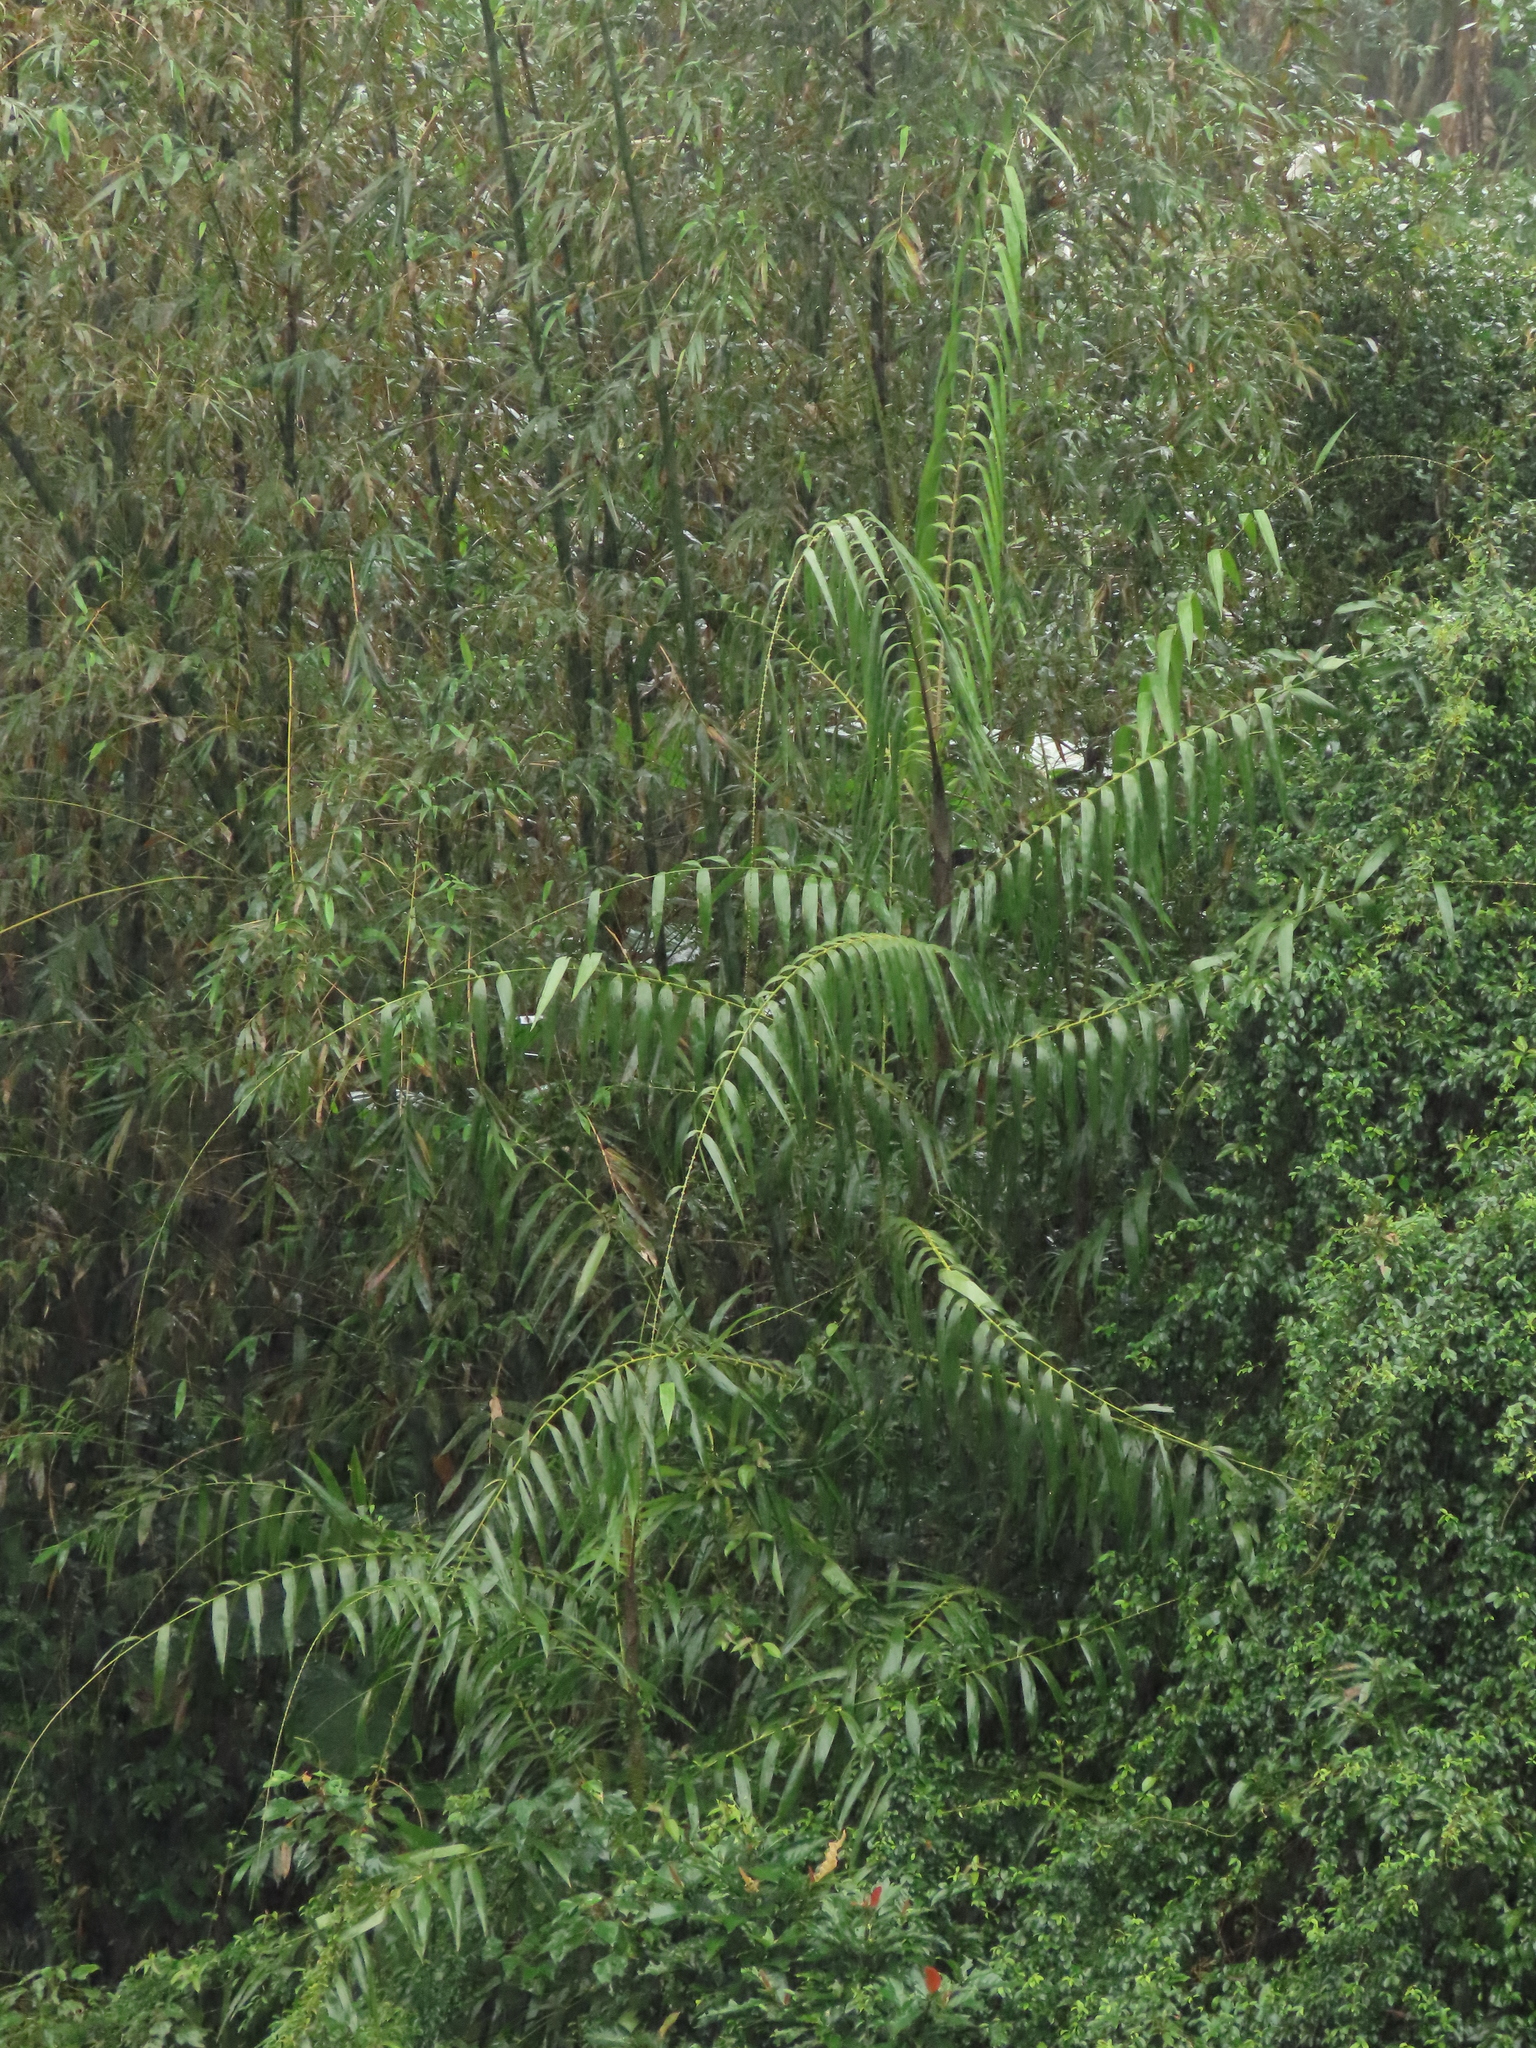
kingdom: Plantae
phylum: Tracheophyta
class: Liliopsida
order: Arecales
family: Arecaceae
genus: Calamus
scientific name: Calamus formosanus
